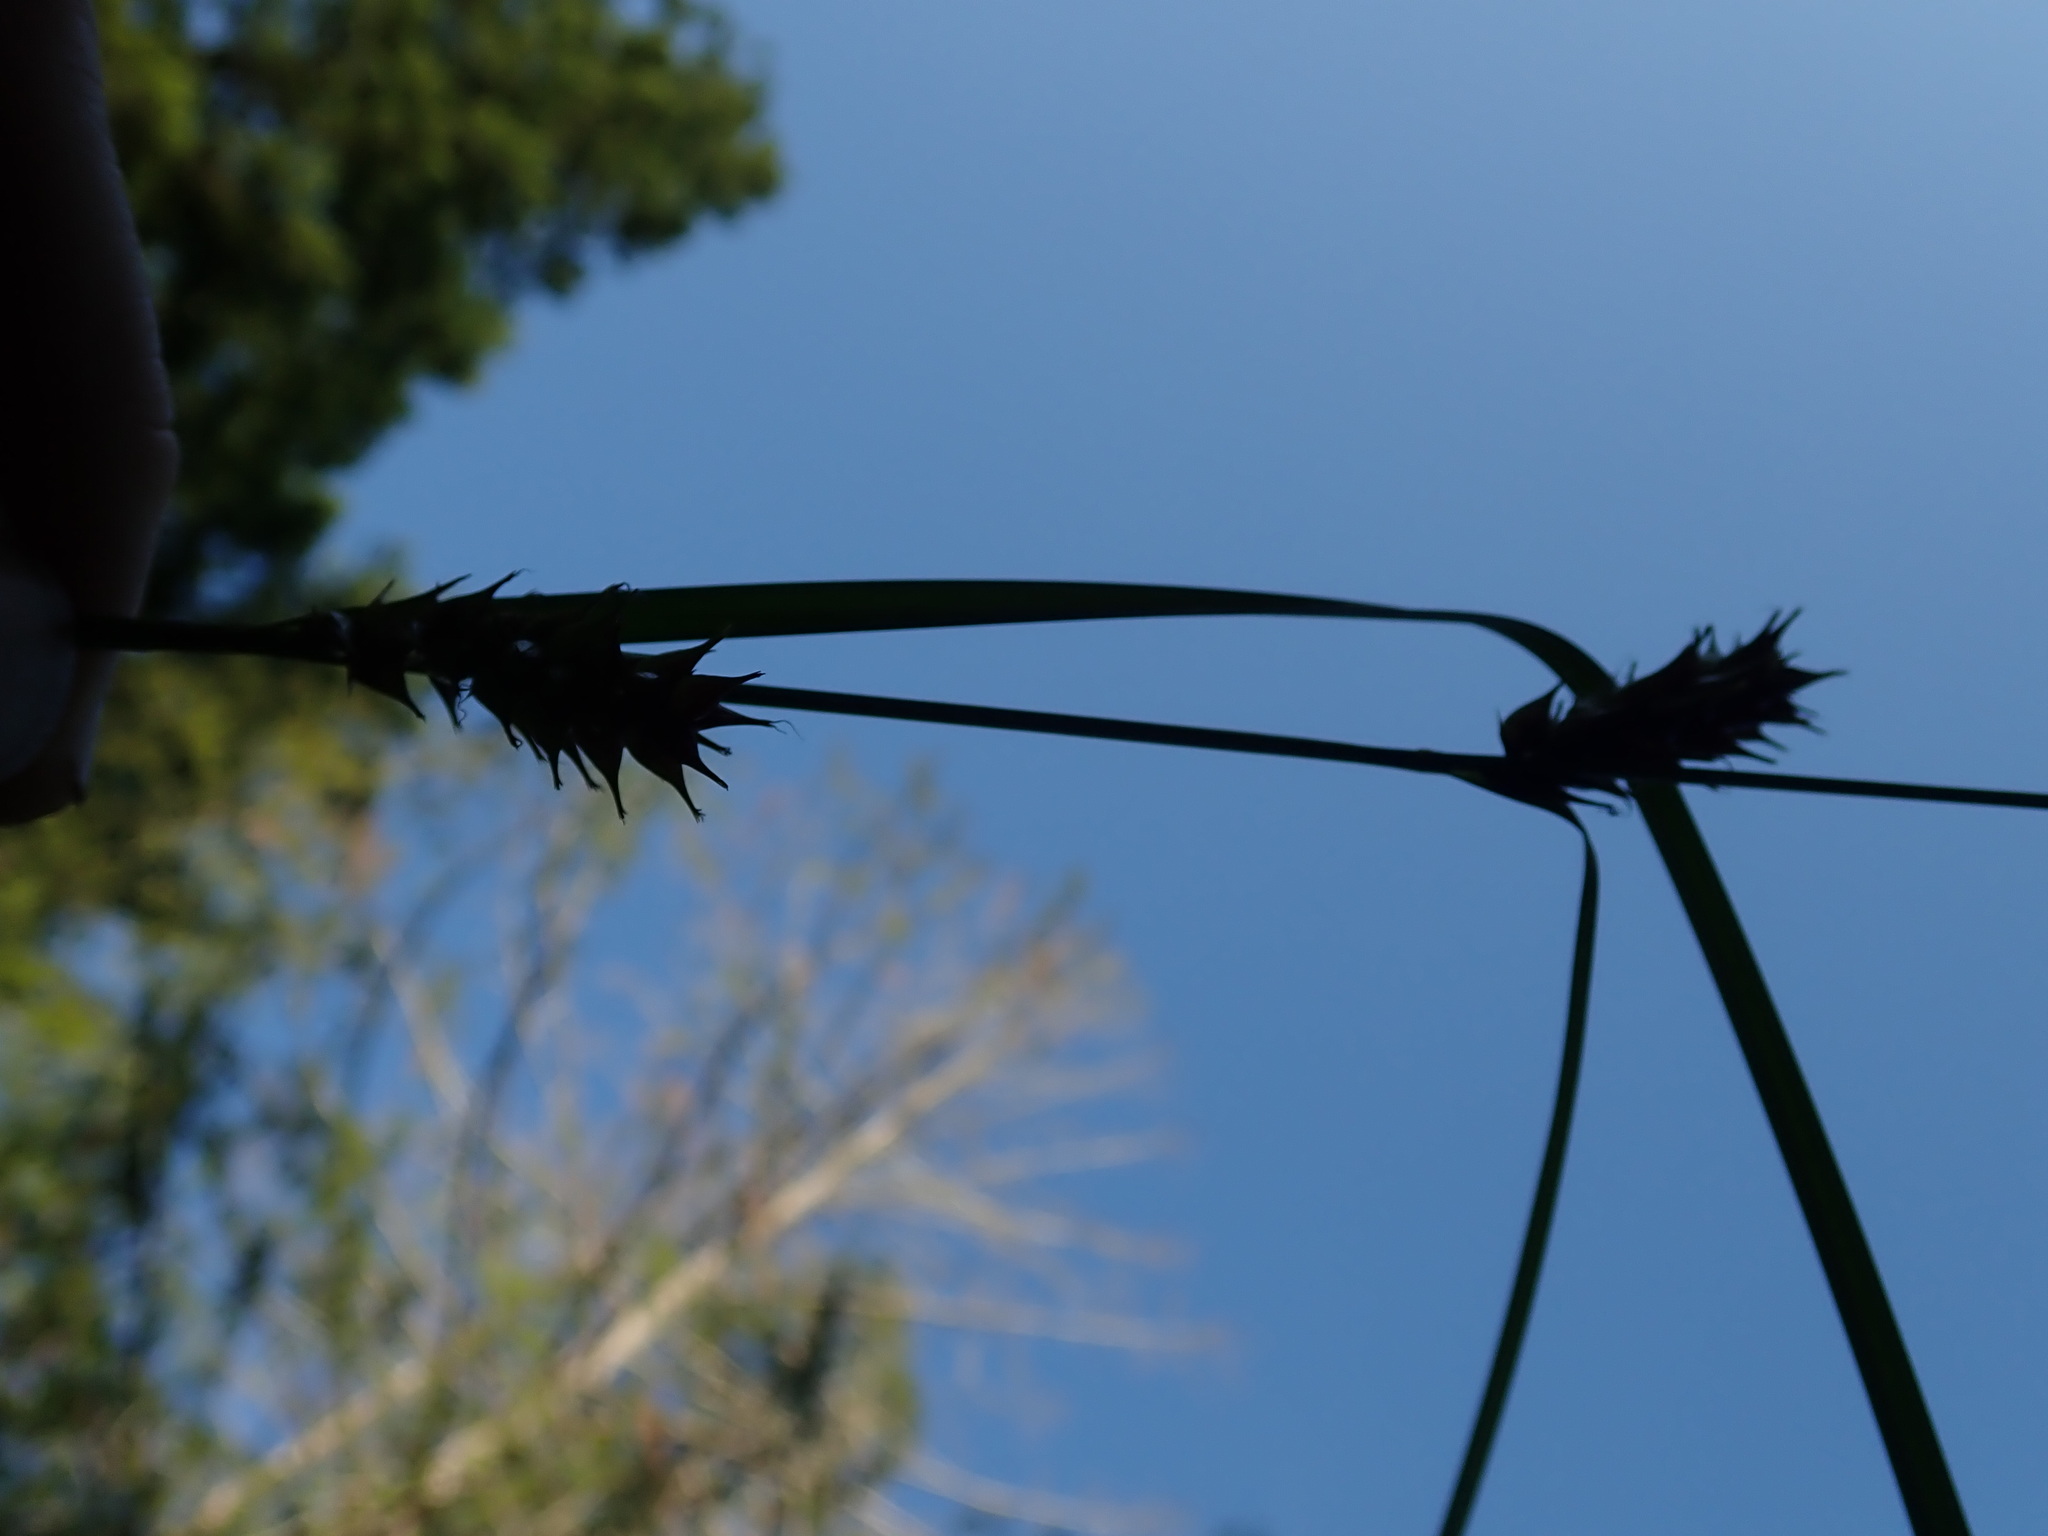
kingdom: Plantae
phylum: Tracheophyta
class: Liliopsida
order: Poales
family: Cyperaceae
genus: Carex
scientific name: Carex exsiccata
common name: Beaked sedge
